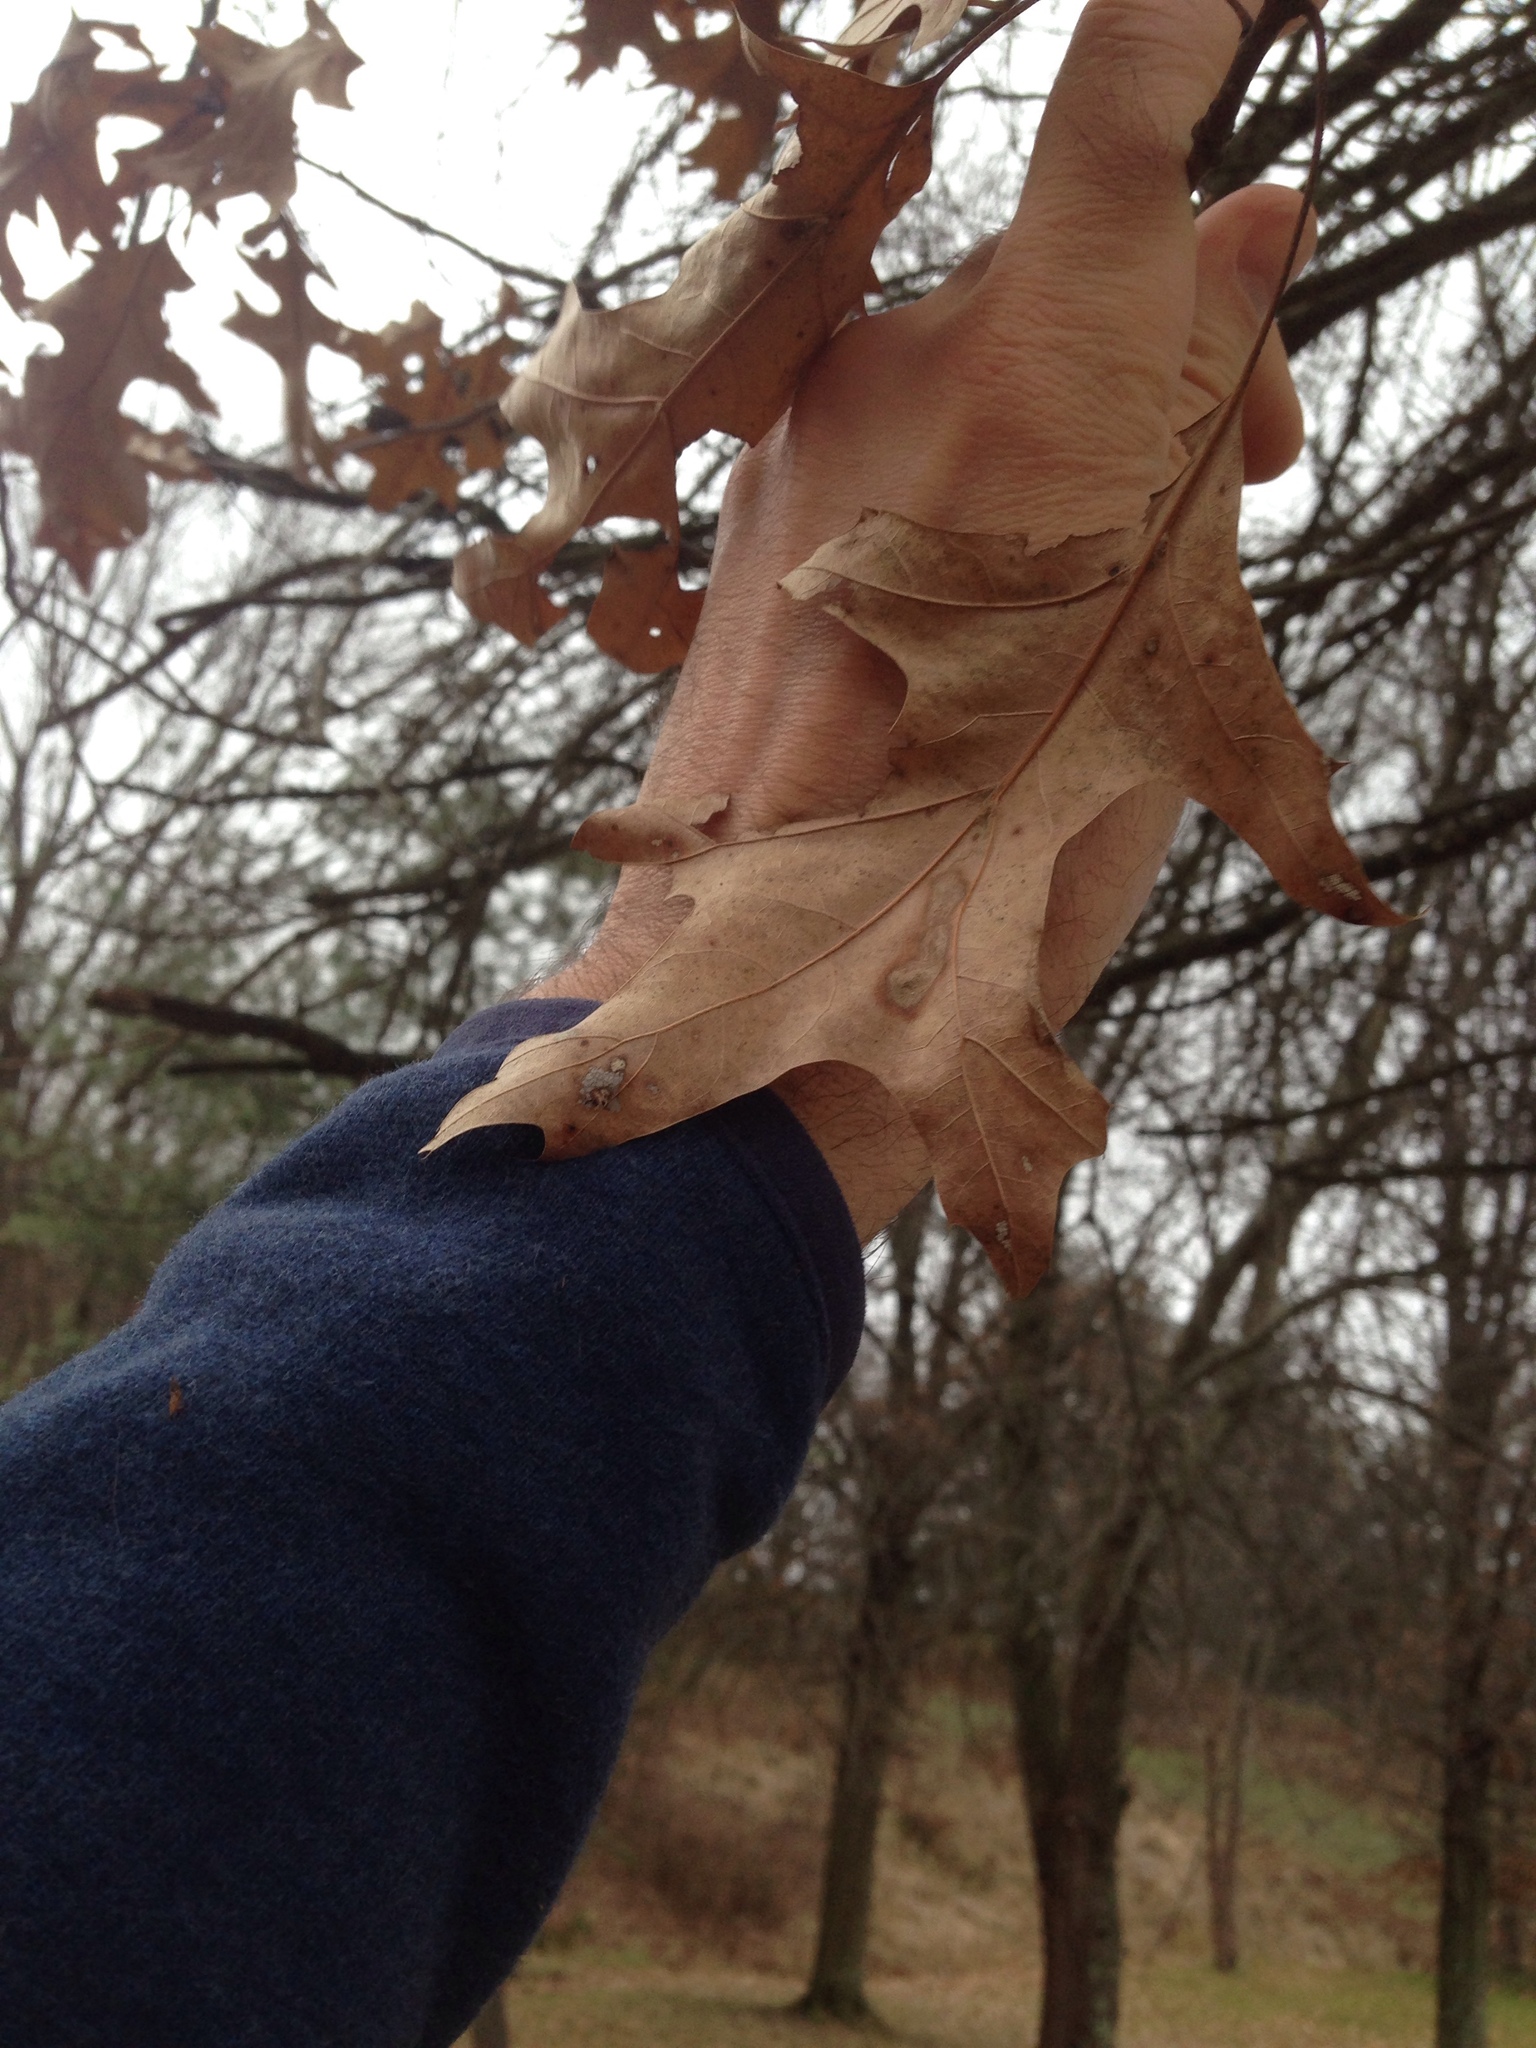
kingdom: Plantae
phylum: Tracheophyta
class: Magnoliopsida
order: Fagales
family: Fagaceae
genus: Quercus
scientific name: Quercus palustris
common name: Pin oak
